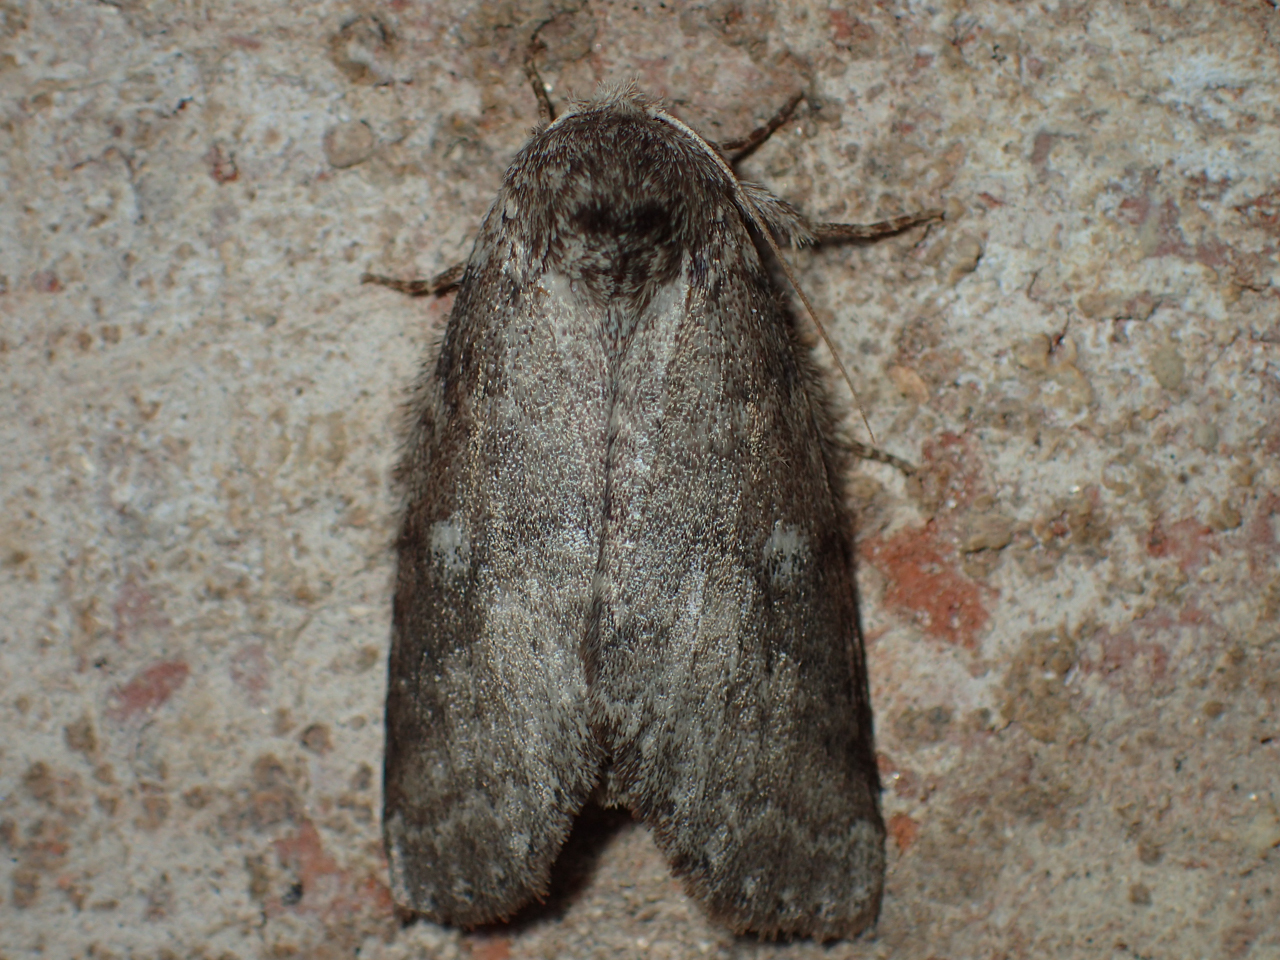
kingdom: Animalia
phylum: Arthropoda
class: Insecta
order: Lepidoptera
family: Notodontidae
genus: Lochmaeus
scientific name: Lochmaeus manteo
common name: Variable oakleaf caterpillar moth
